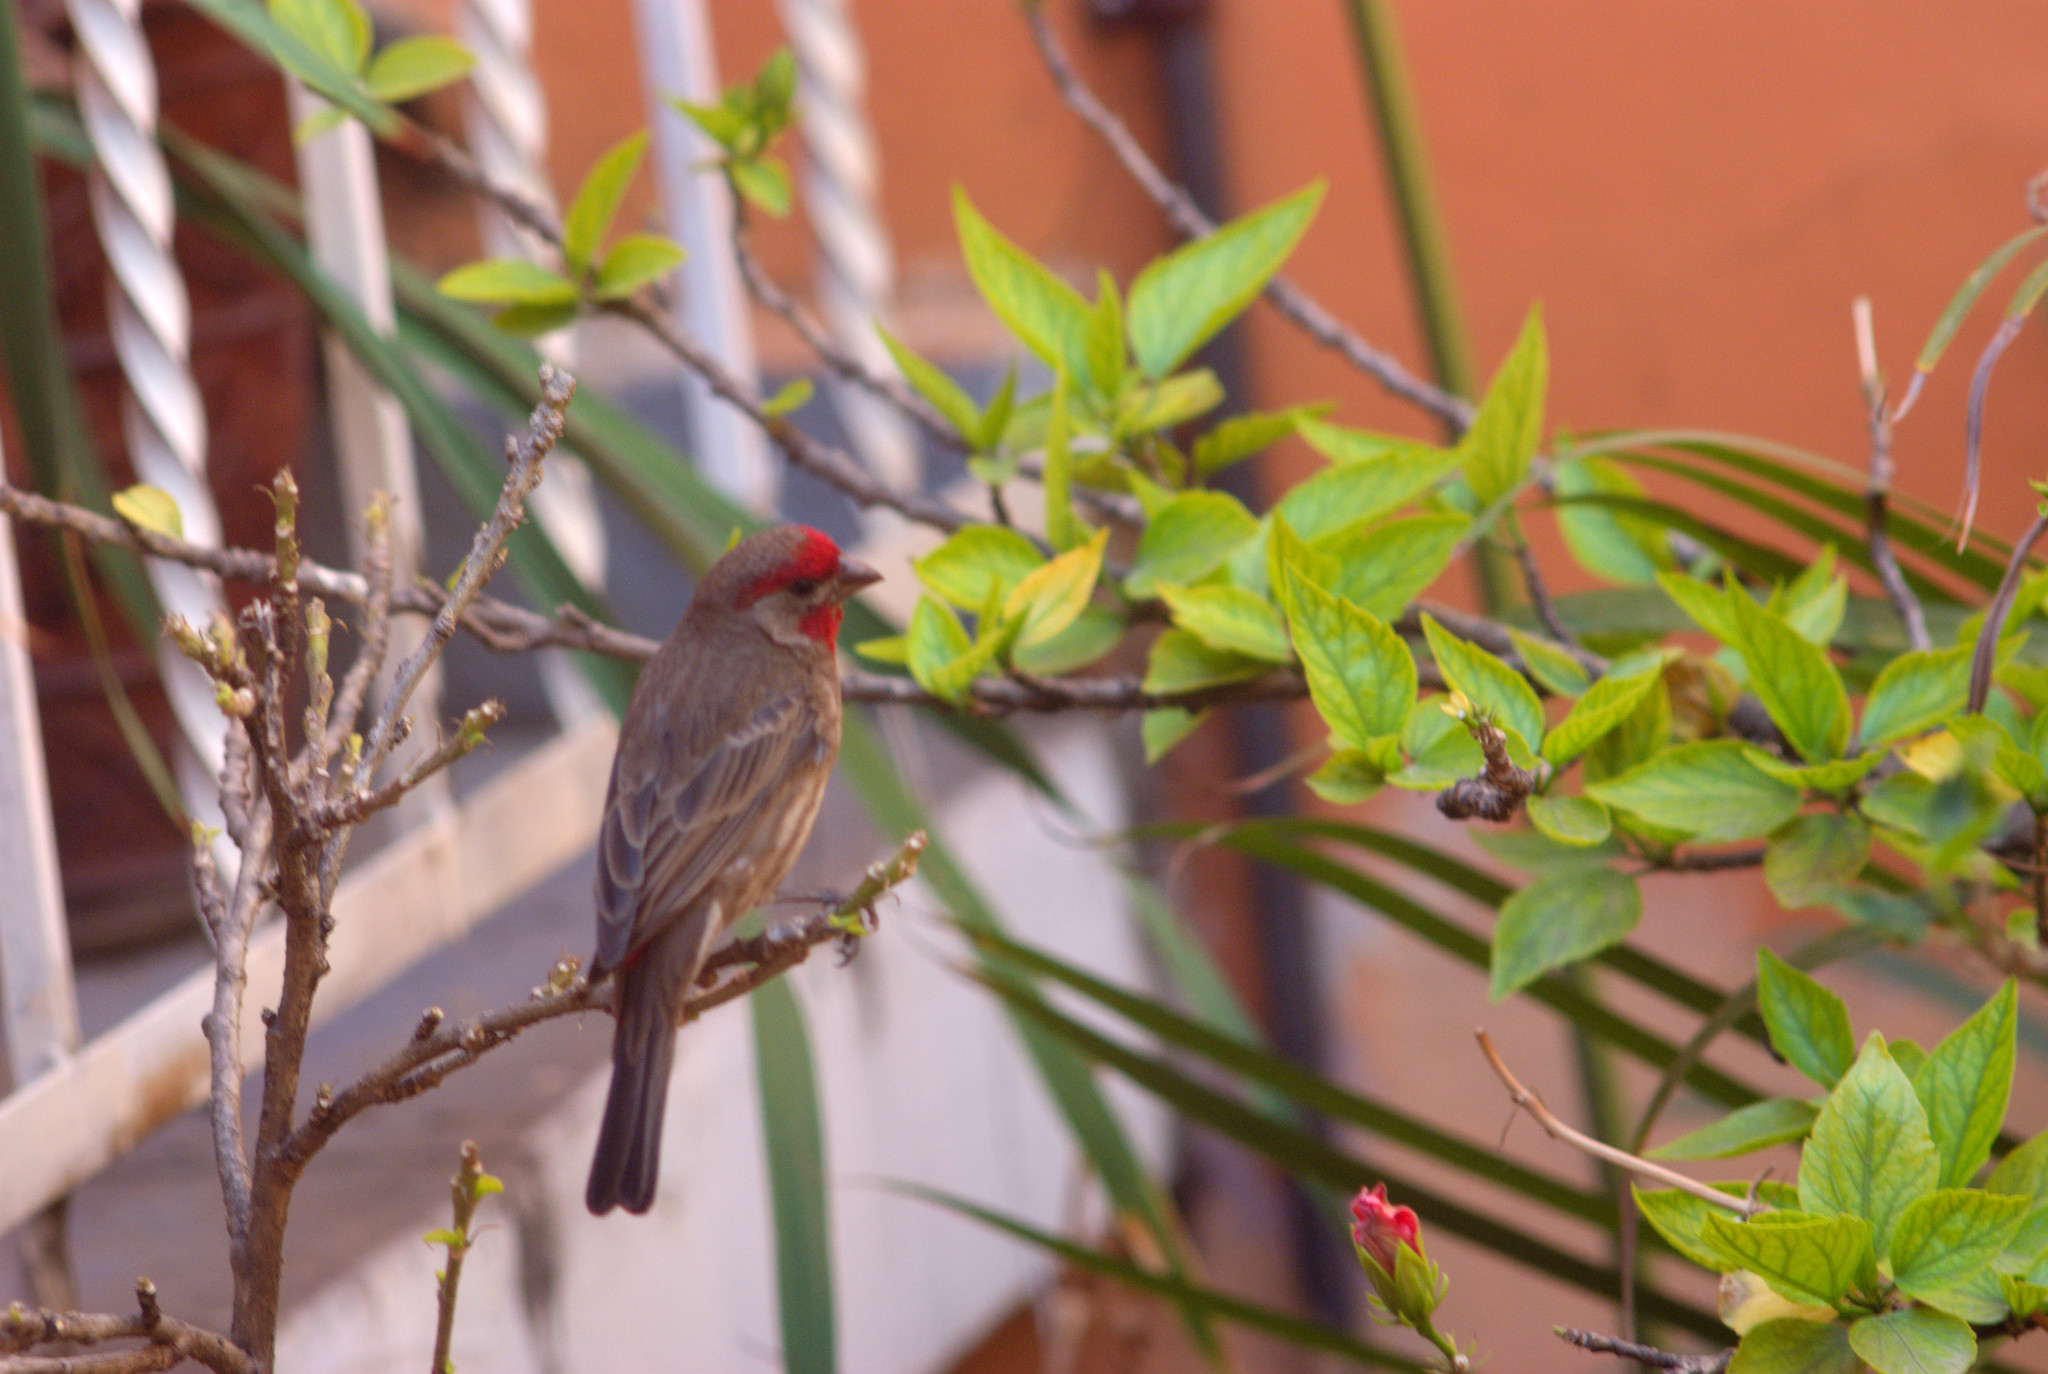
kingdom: Animalia
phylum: Chordata
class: Aves
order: Passeriformes
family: Fringillidae
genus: Haemorhous
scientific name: Haemorhous mexicanus
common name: House finch
